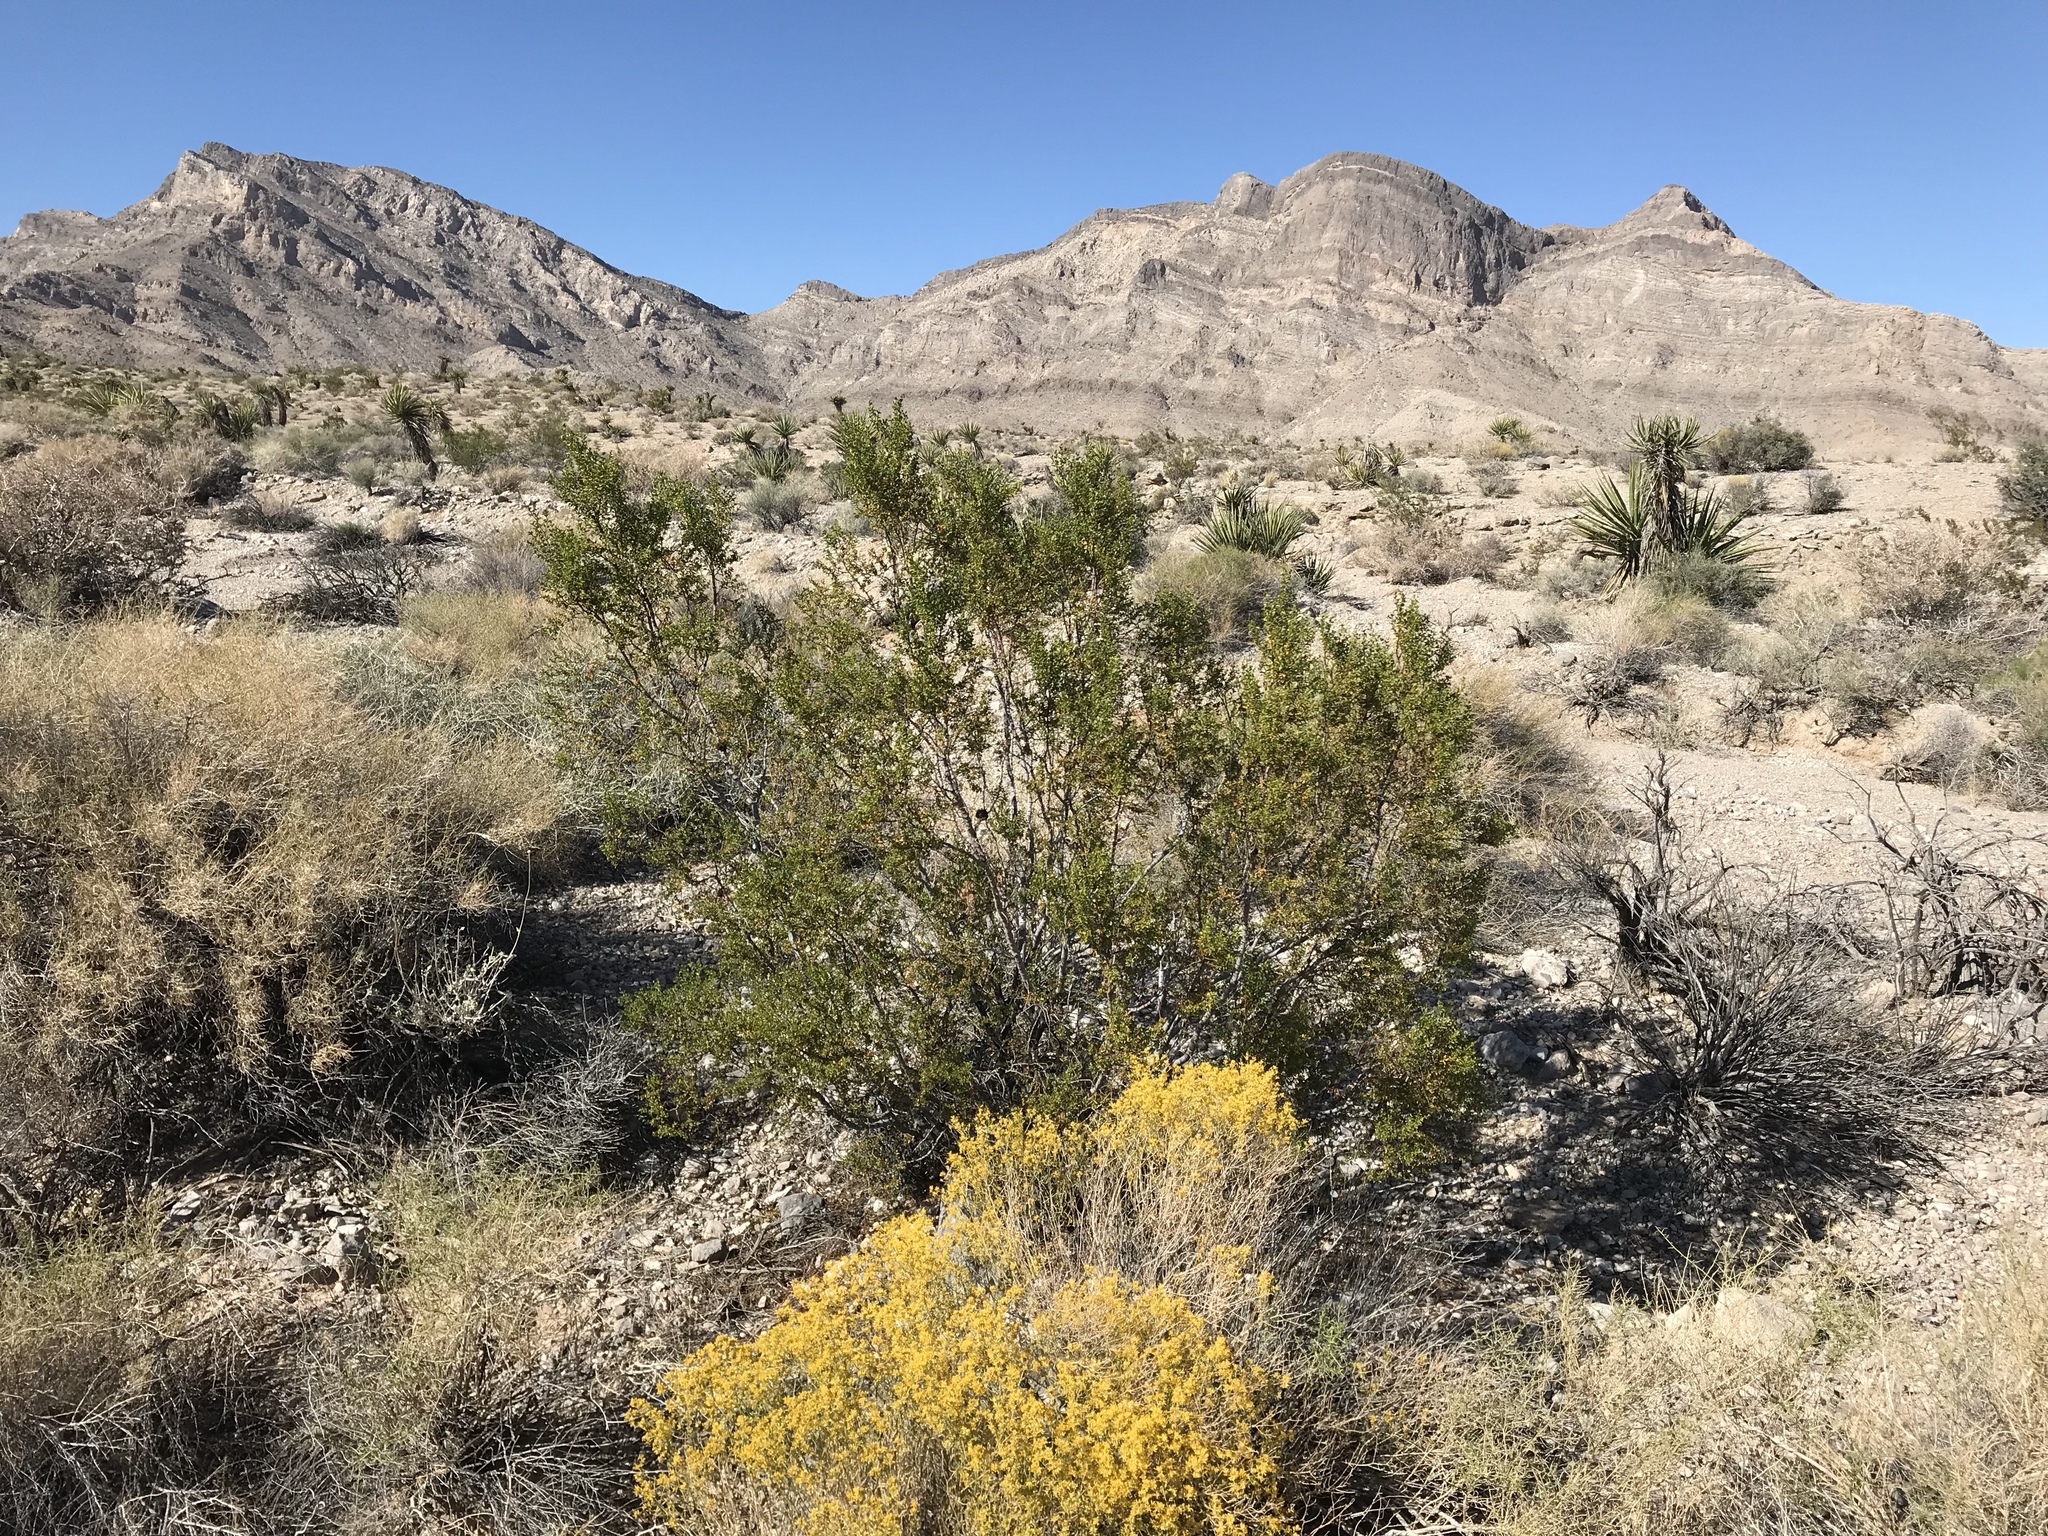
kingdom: Plantae
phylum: Tracheophyta
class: Magnoliopsida
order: Zygophyllales
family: Zygophyllaceae
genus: Larrea
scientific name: Larrea tridentata
